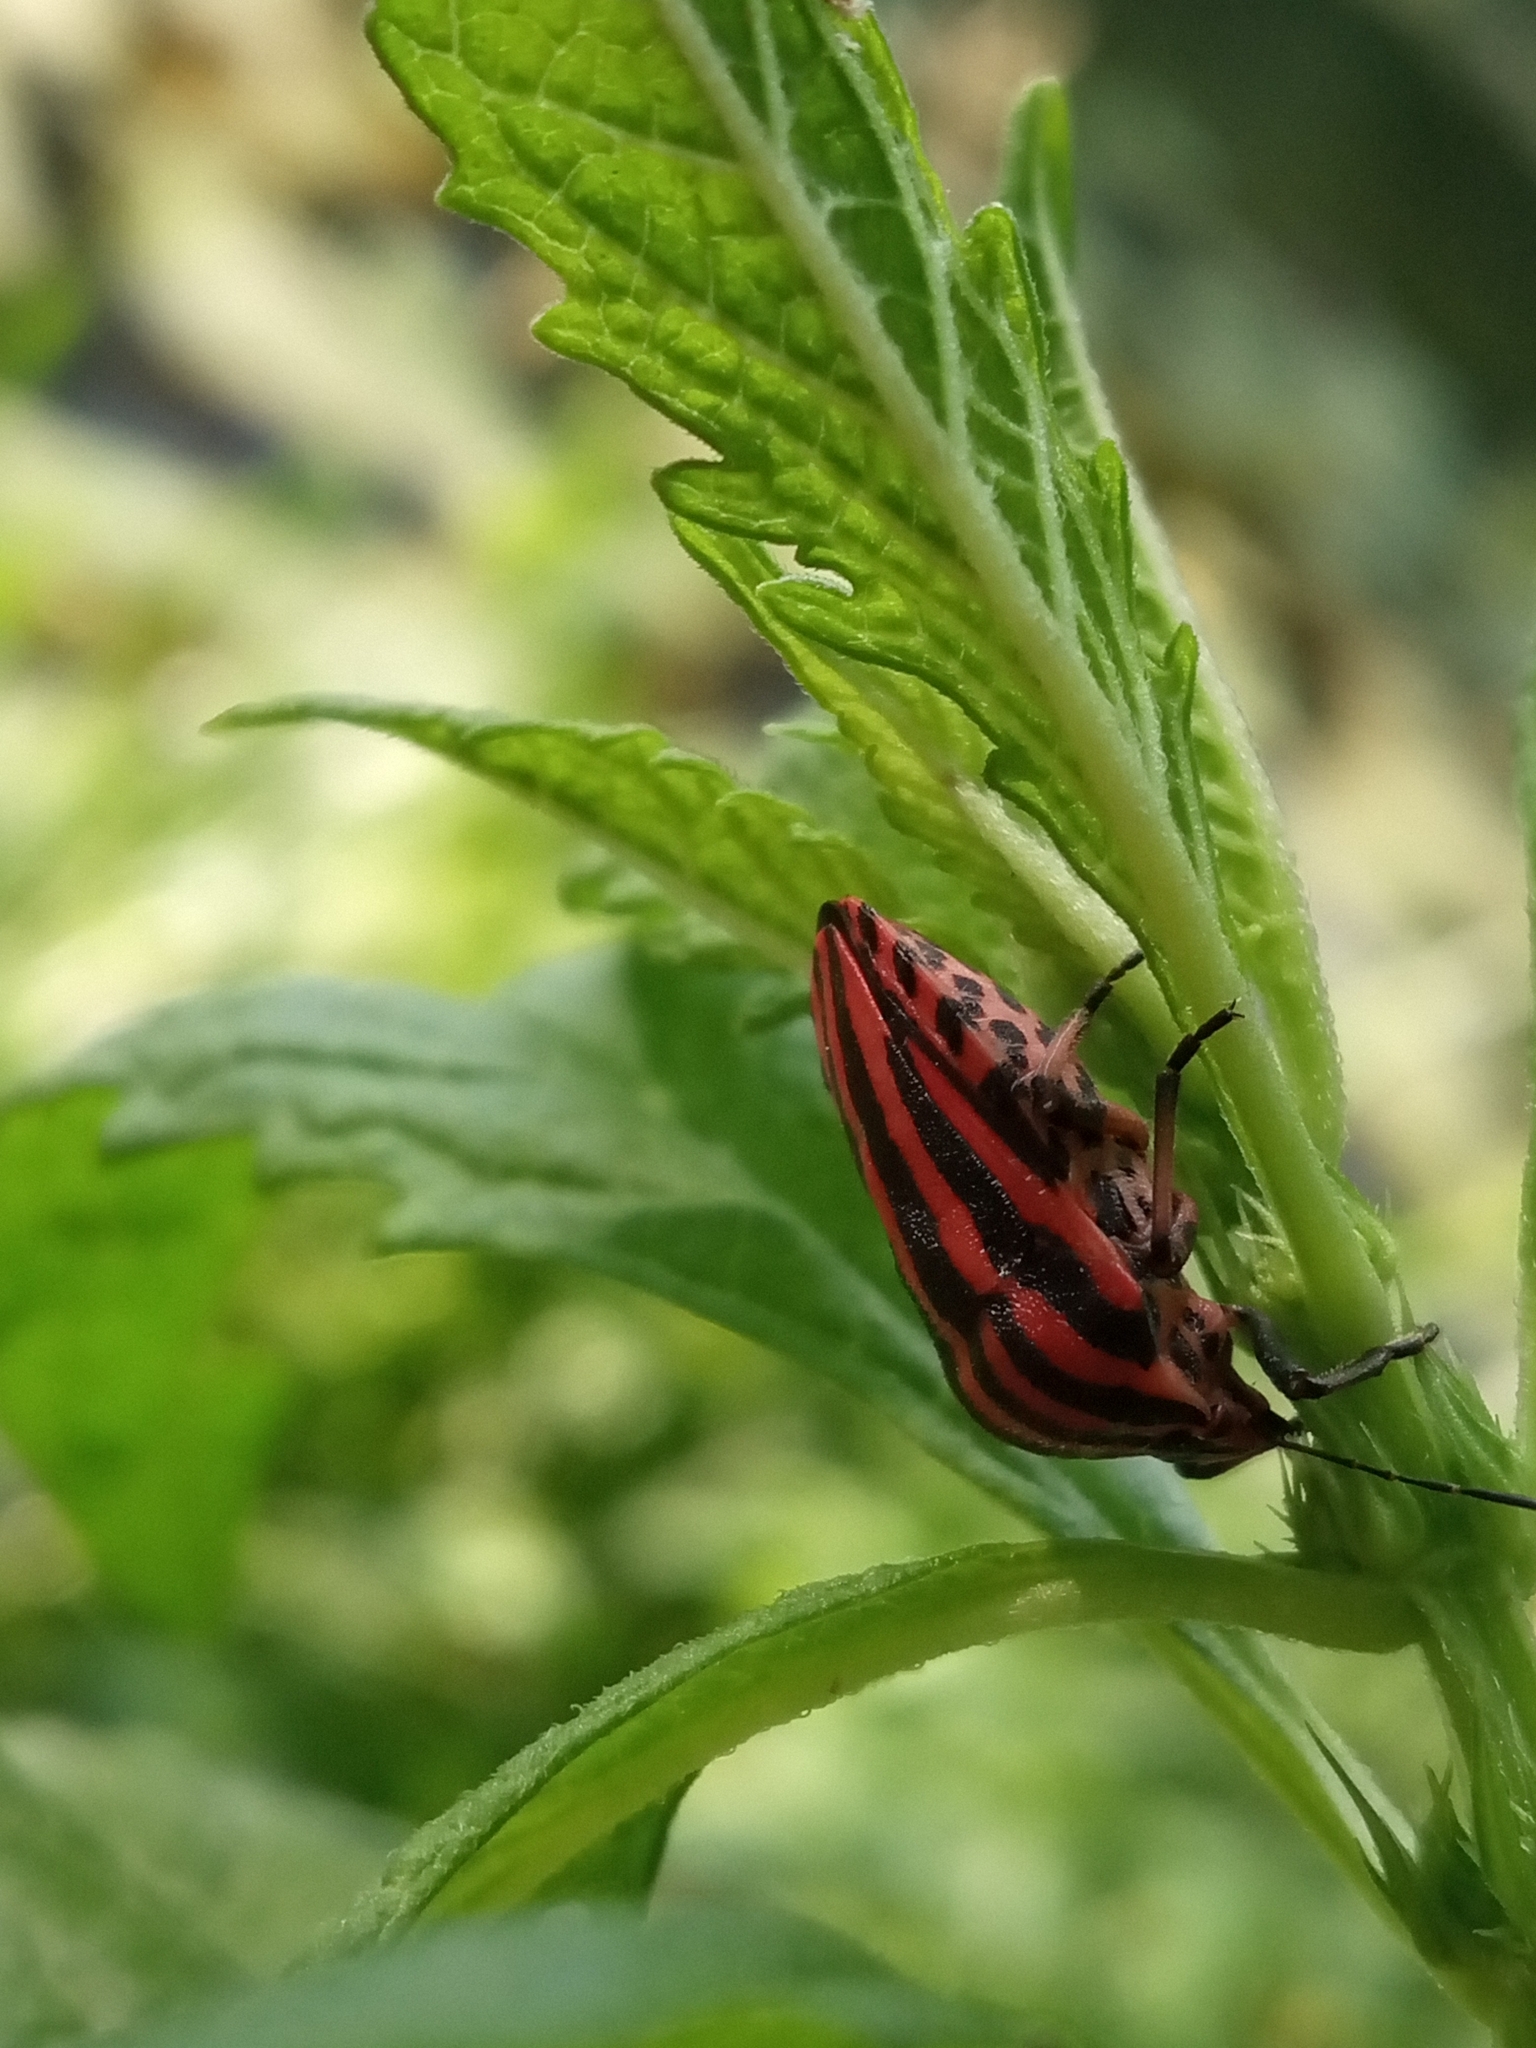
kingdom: Animalia
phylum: Arthropoda
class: Insecta
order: Hemiptera
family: Pentatomidae
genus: Graphosoma
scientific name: Graphosoma italicum
